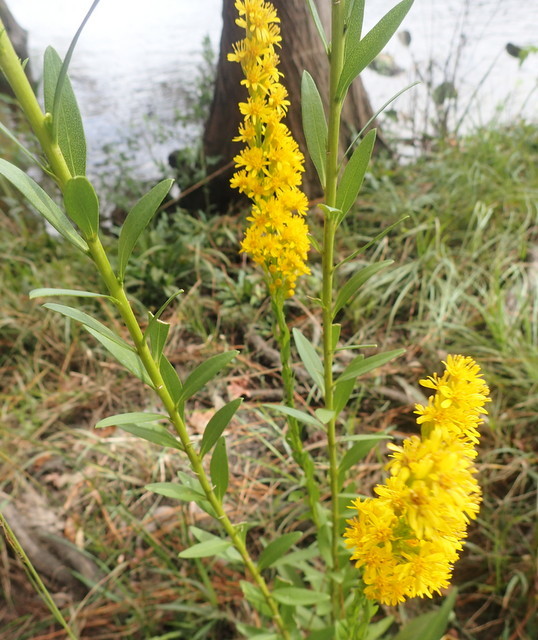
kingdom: Plantae
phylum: Tracheophyta
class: Magnoliopsida
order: Asterales
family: Asteraceae
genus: Solidago
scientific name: Solidago mexicana
